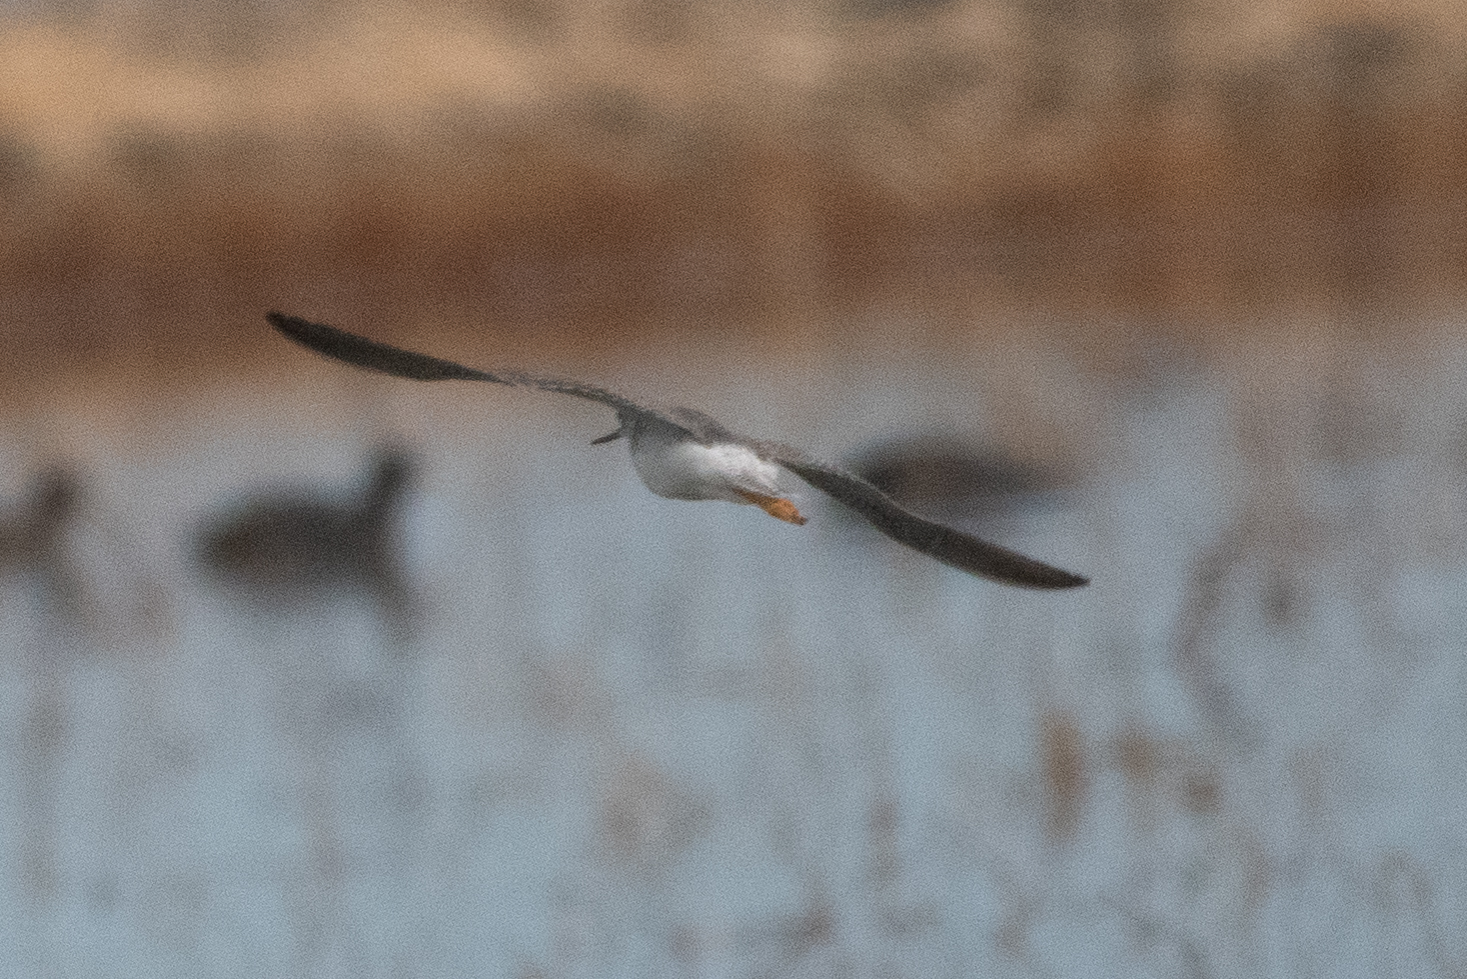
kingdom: Animalia
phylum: Chordata
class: Aves
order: Charadriiformes
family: Scolopacidae
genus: Tringa
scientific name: Tringa melanoleuca
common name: Greater yellowlegs
